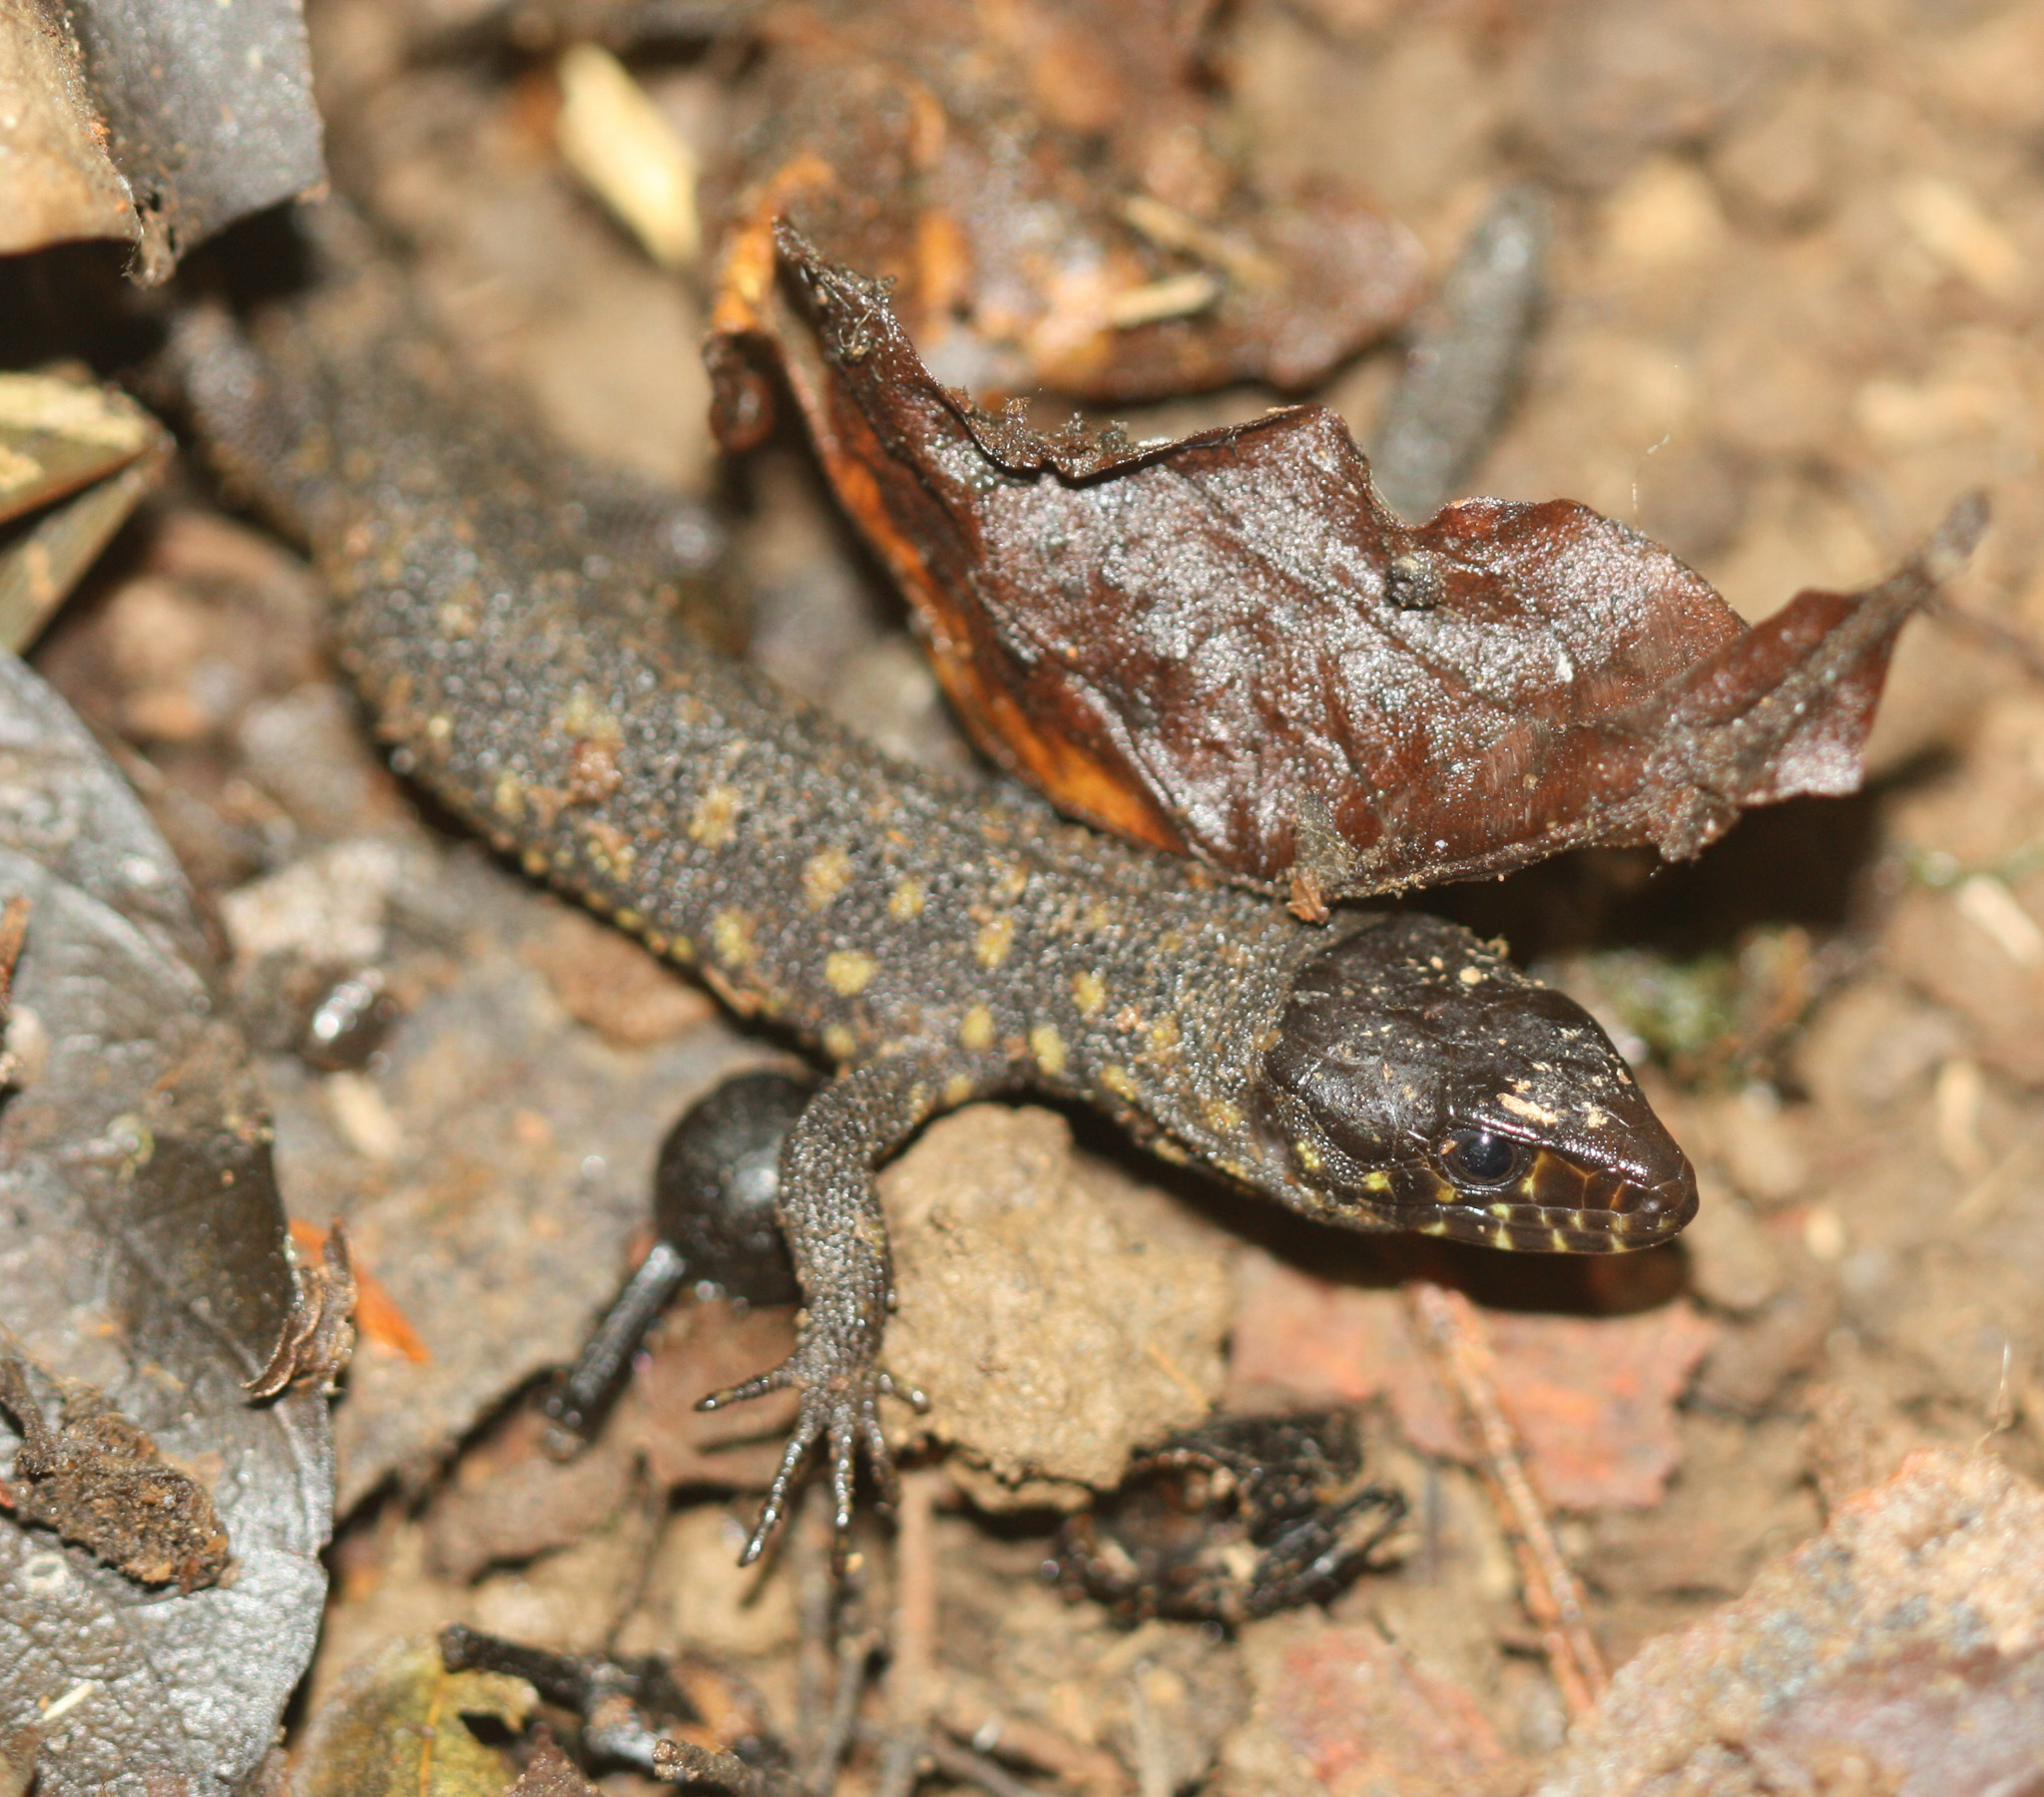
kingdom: Animalia
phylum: Chordata
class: Squamata
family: Xantusiidae
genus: Lepidophyma
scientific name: Lepidophyma flavimaculatum
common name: Yellow-spotted night lizard
